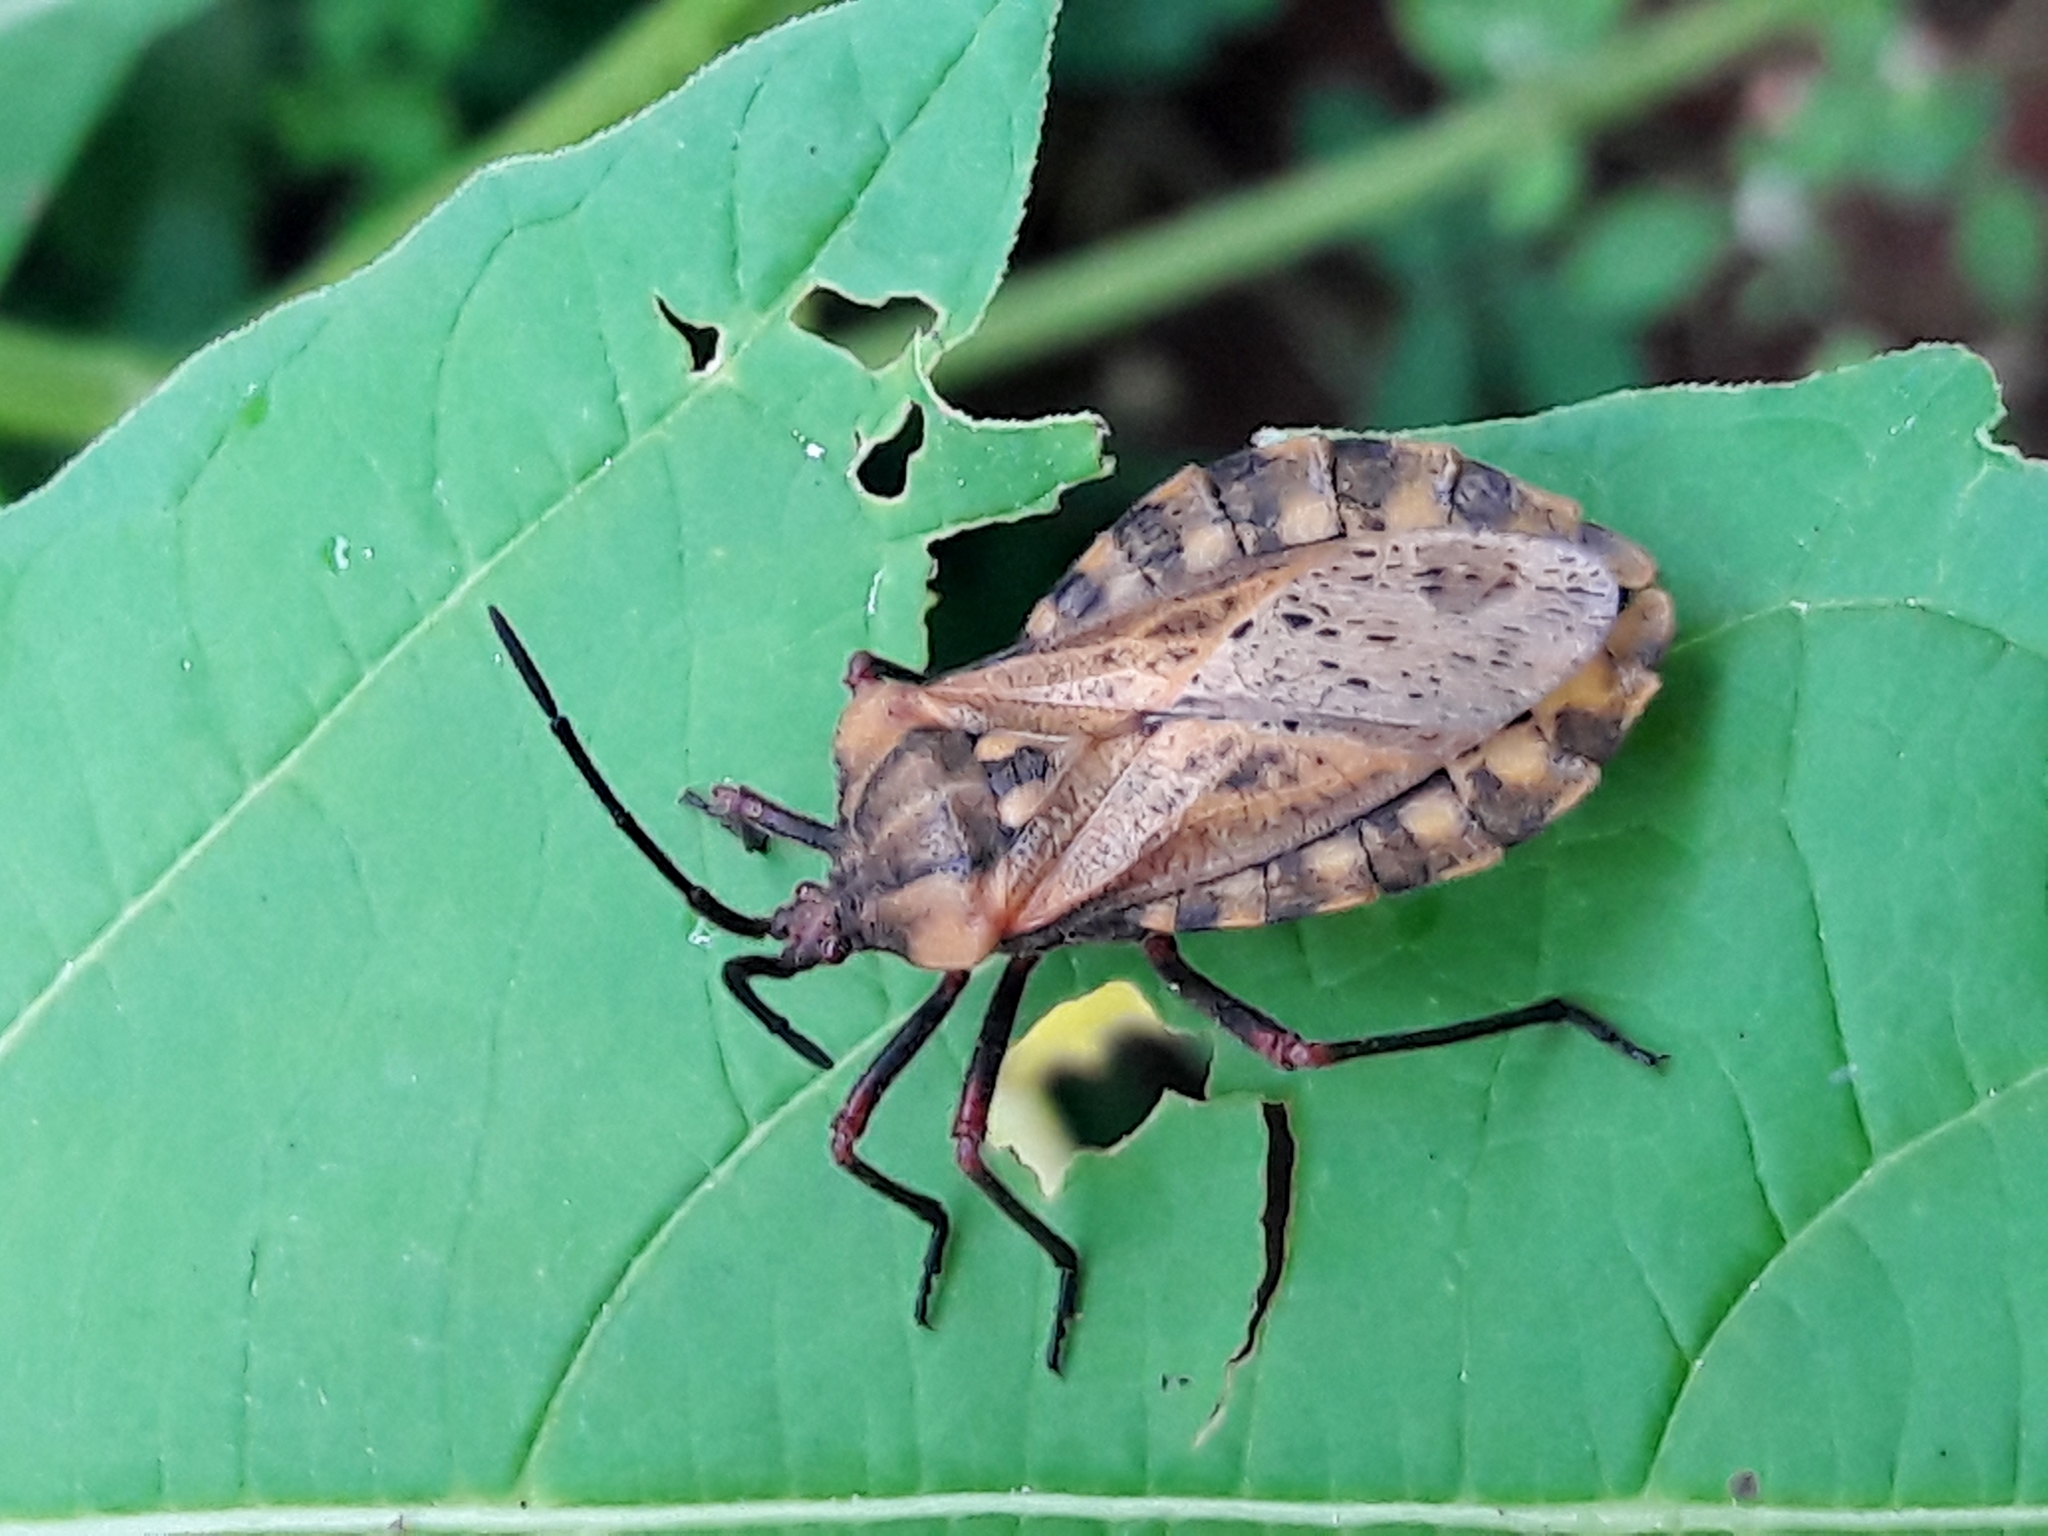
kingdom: Animalia
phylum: Arthropoda
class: Insecta
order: Hemiptera
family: Coreidae
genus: Spartocera
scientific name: Spartocera fusca
